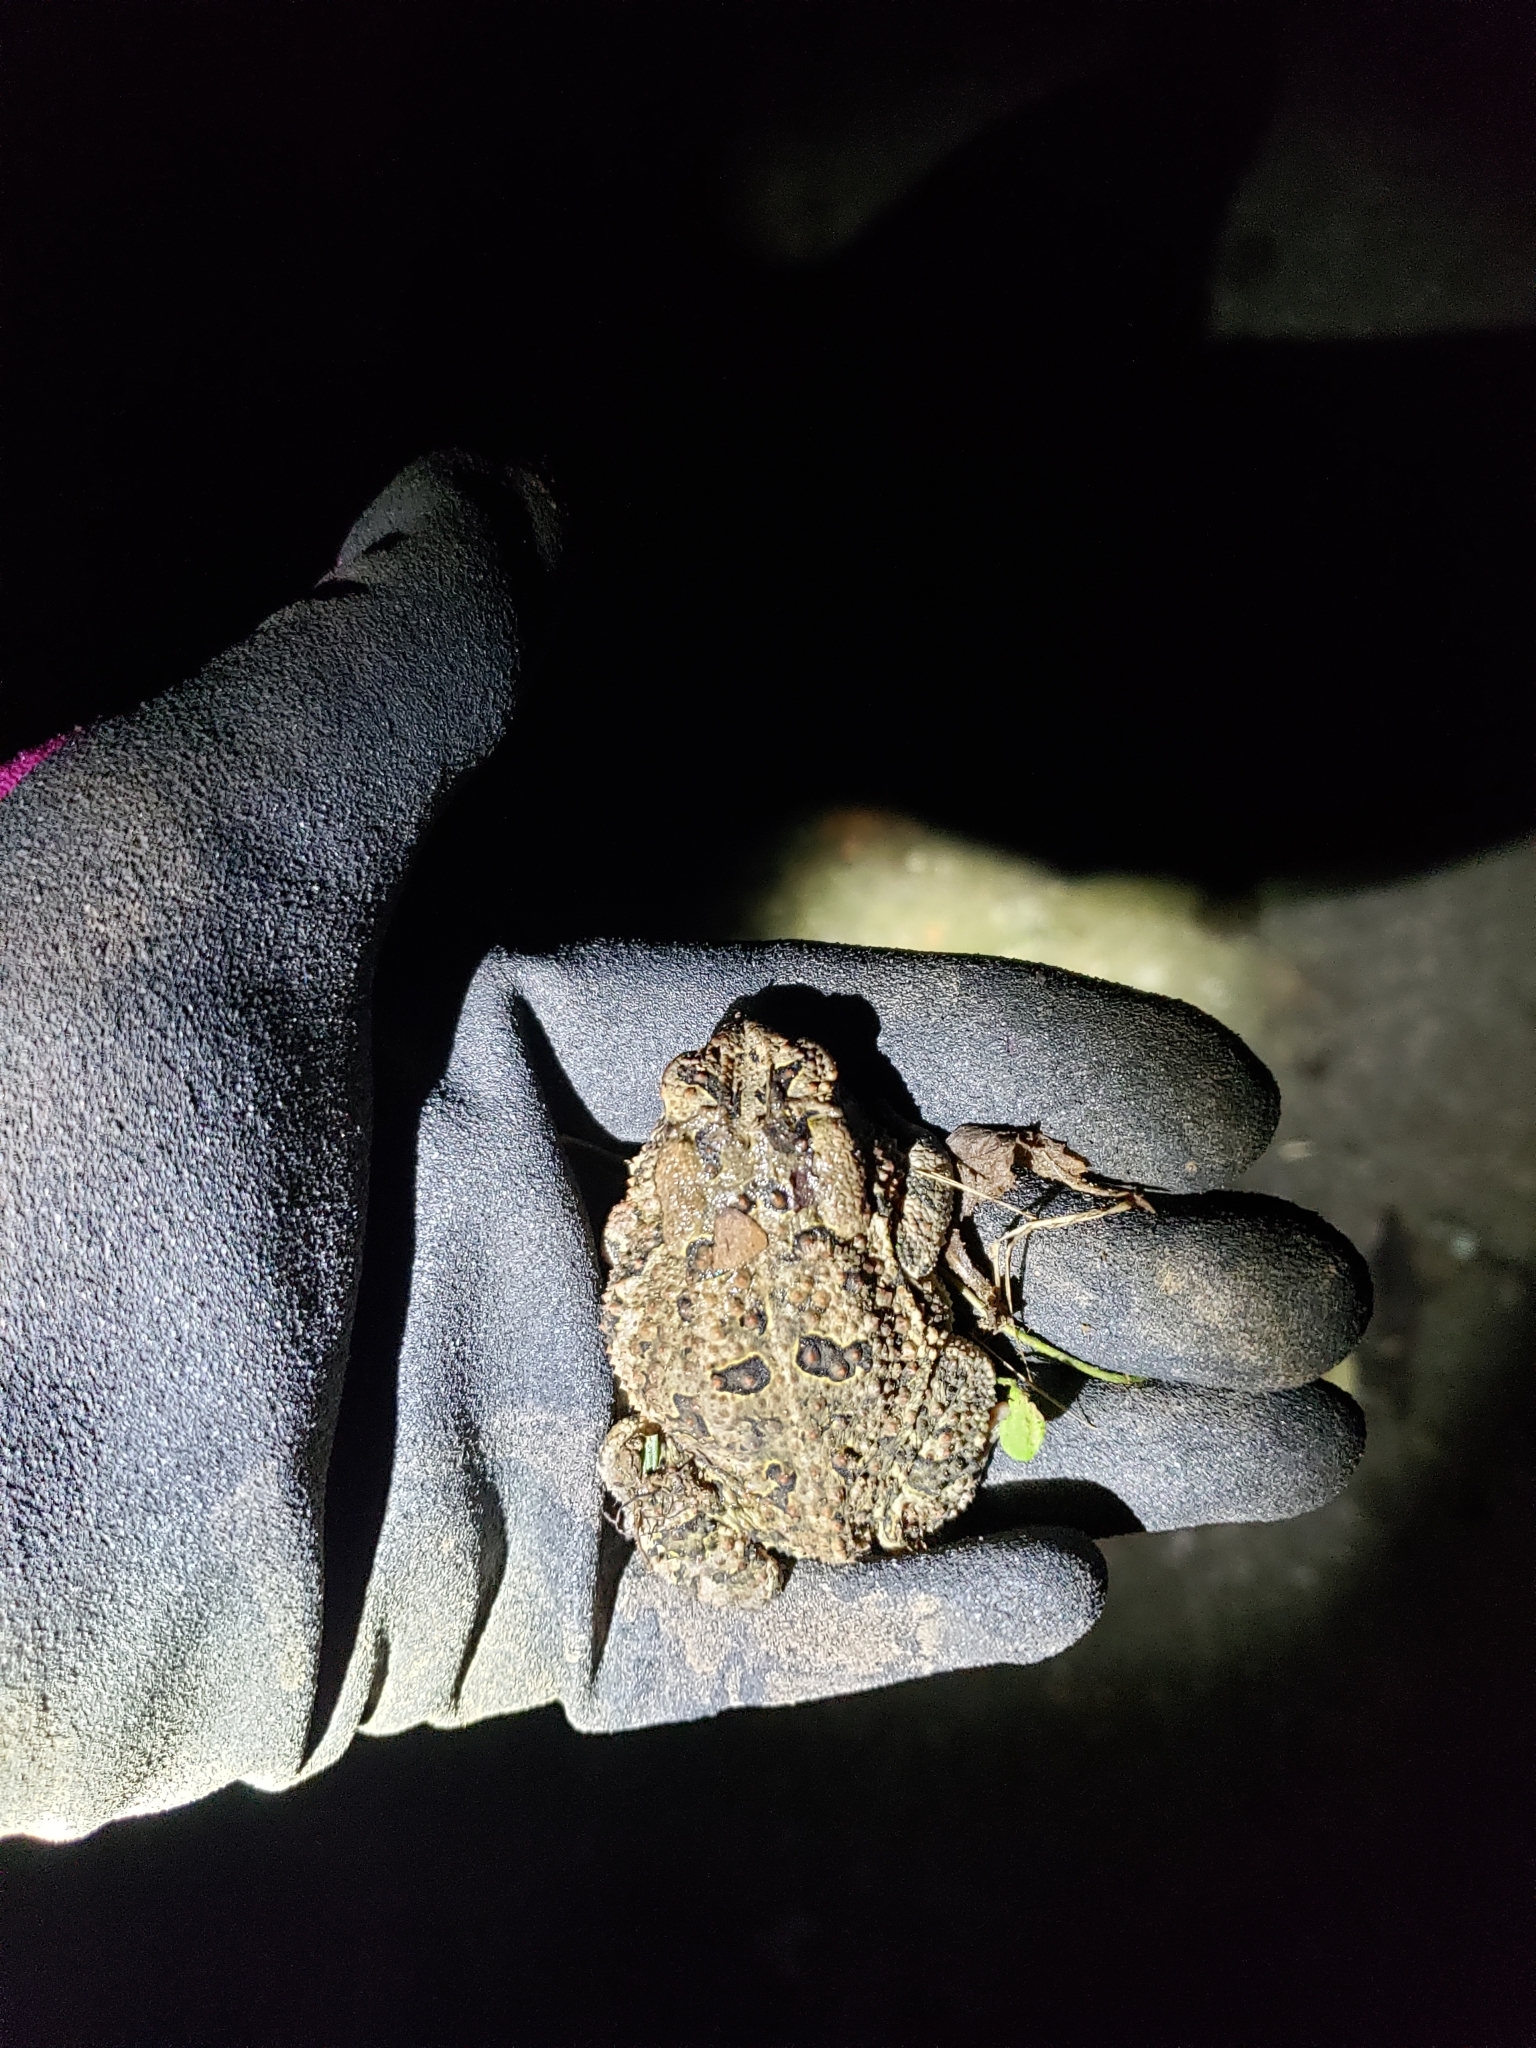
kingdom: Animalia
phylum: Chordata
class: Amphibia
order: Anura
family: Bufonidae
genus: Anaxyrus
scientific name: Anaxyrus fowleri
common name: Fowler's toad
